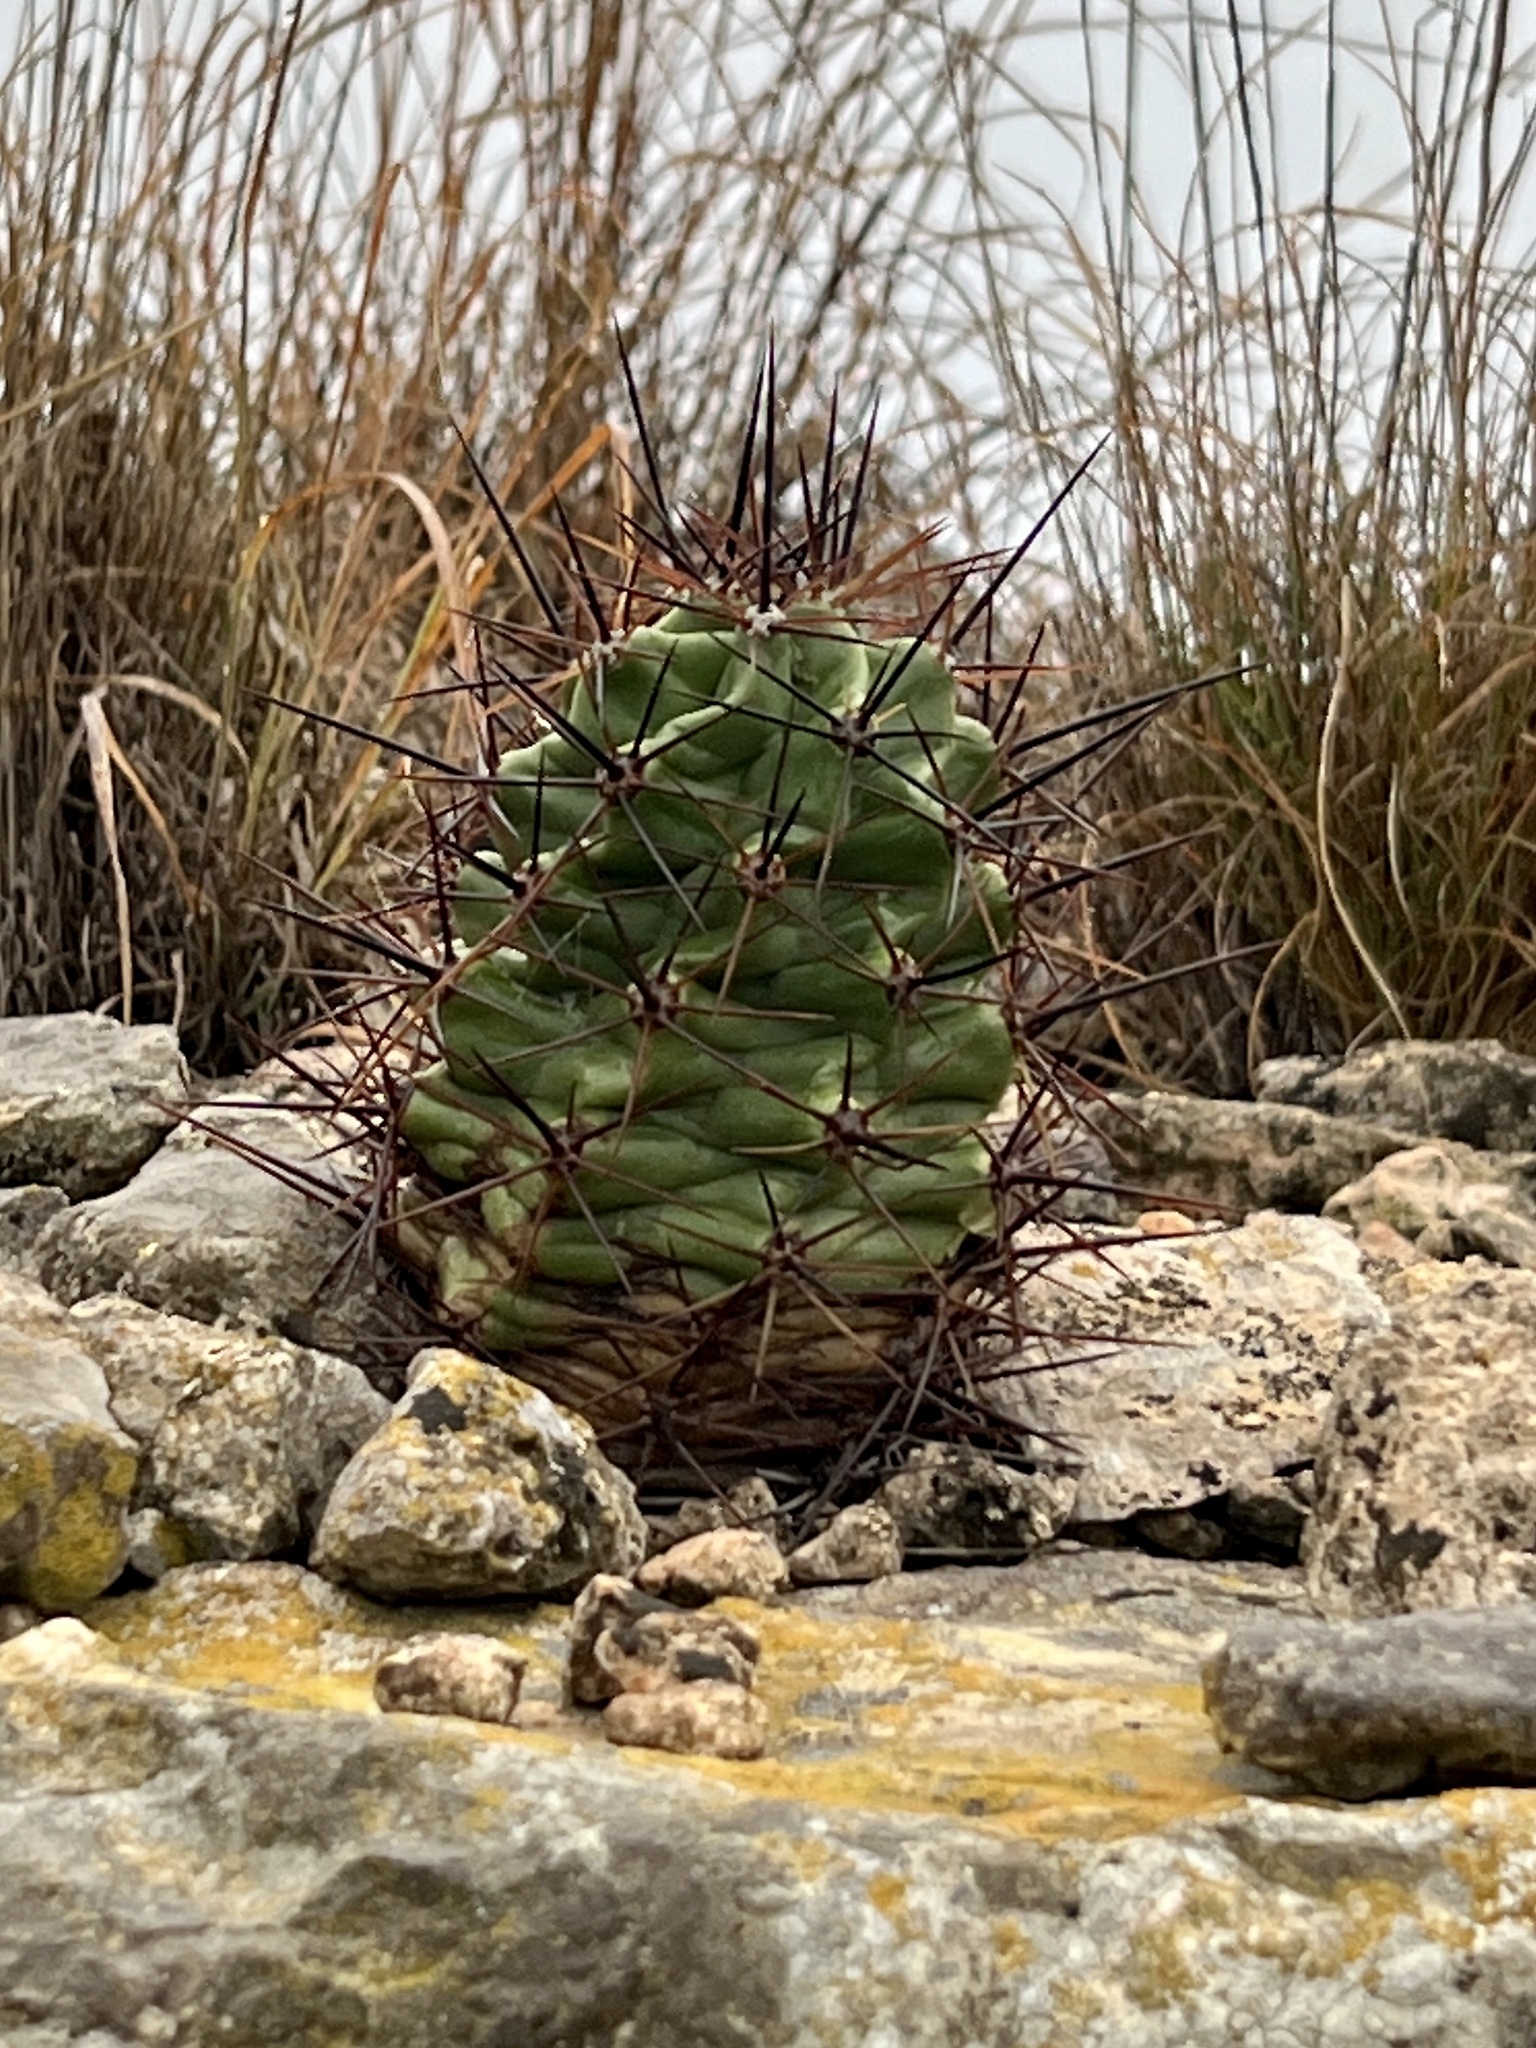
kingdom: Plantae
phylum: Tracheophyta
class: Magnoliopsida
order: Caryophyllales
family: Cactaceae
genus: Echinocereus
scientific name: Echinocereus coccineus
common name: Scarlet hedgehog cactus
